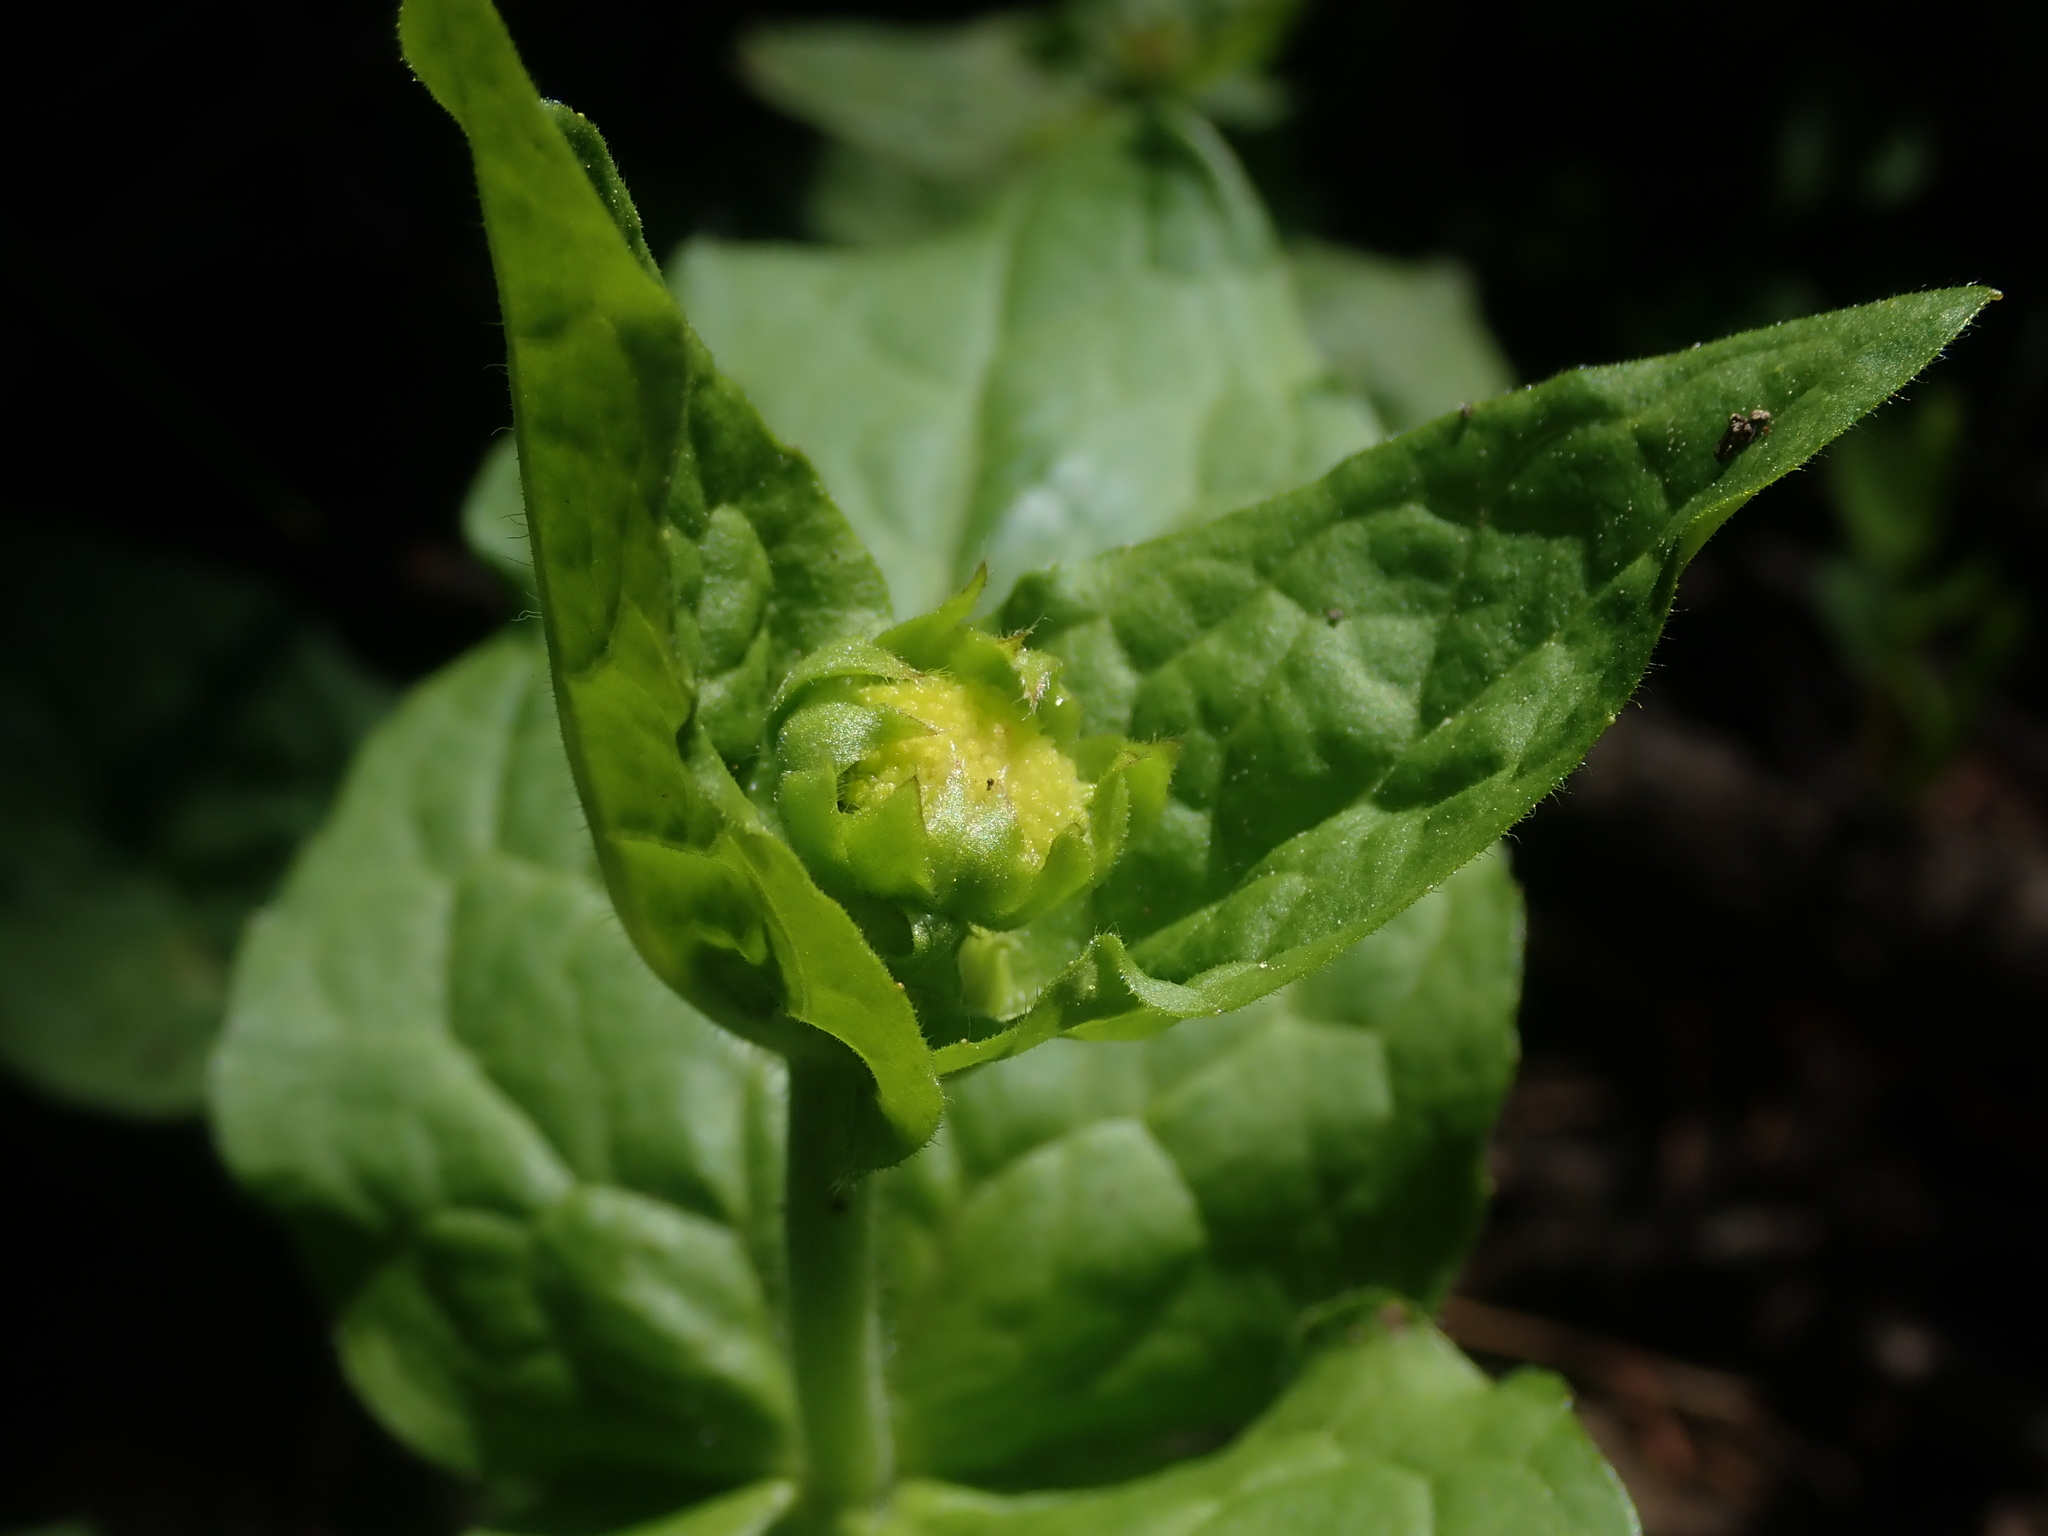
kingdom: Plantae
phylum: Tracheophyta
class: Magnoliopsida
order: Asterales
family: Asteraceae
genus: Arnica
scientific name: Arnica latifolia
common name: Arnica
